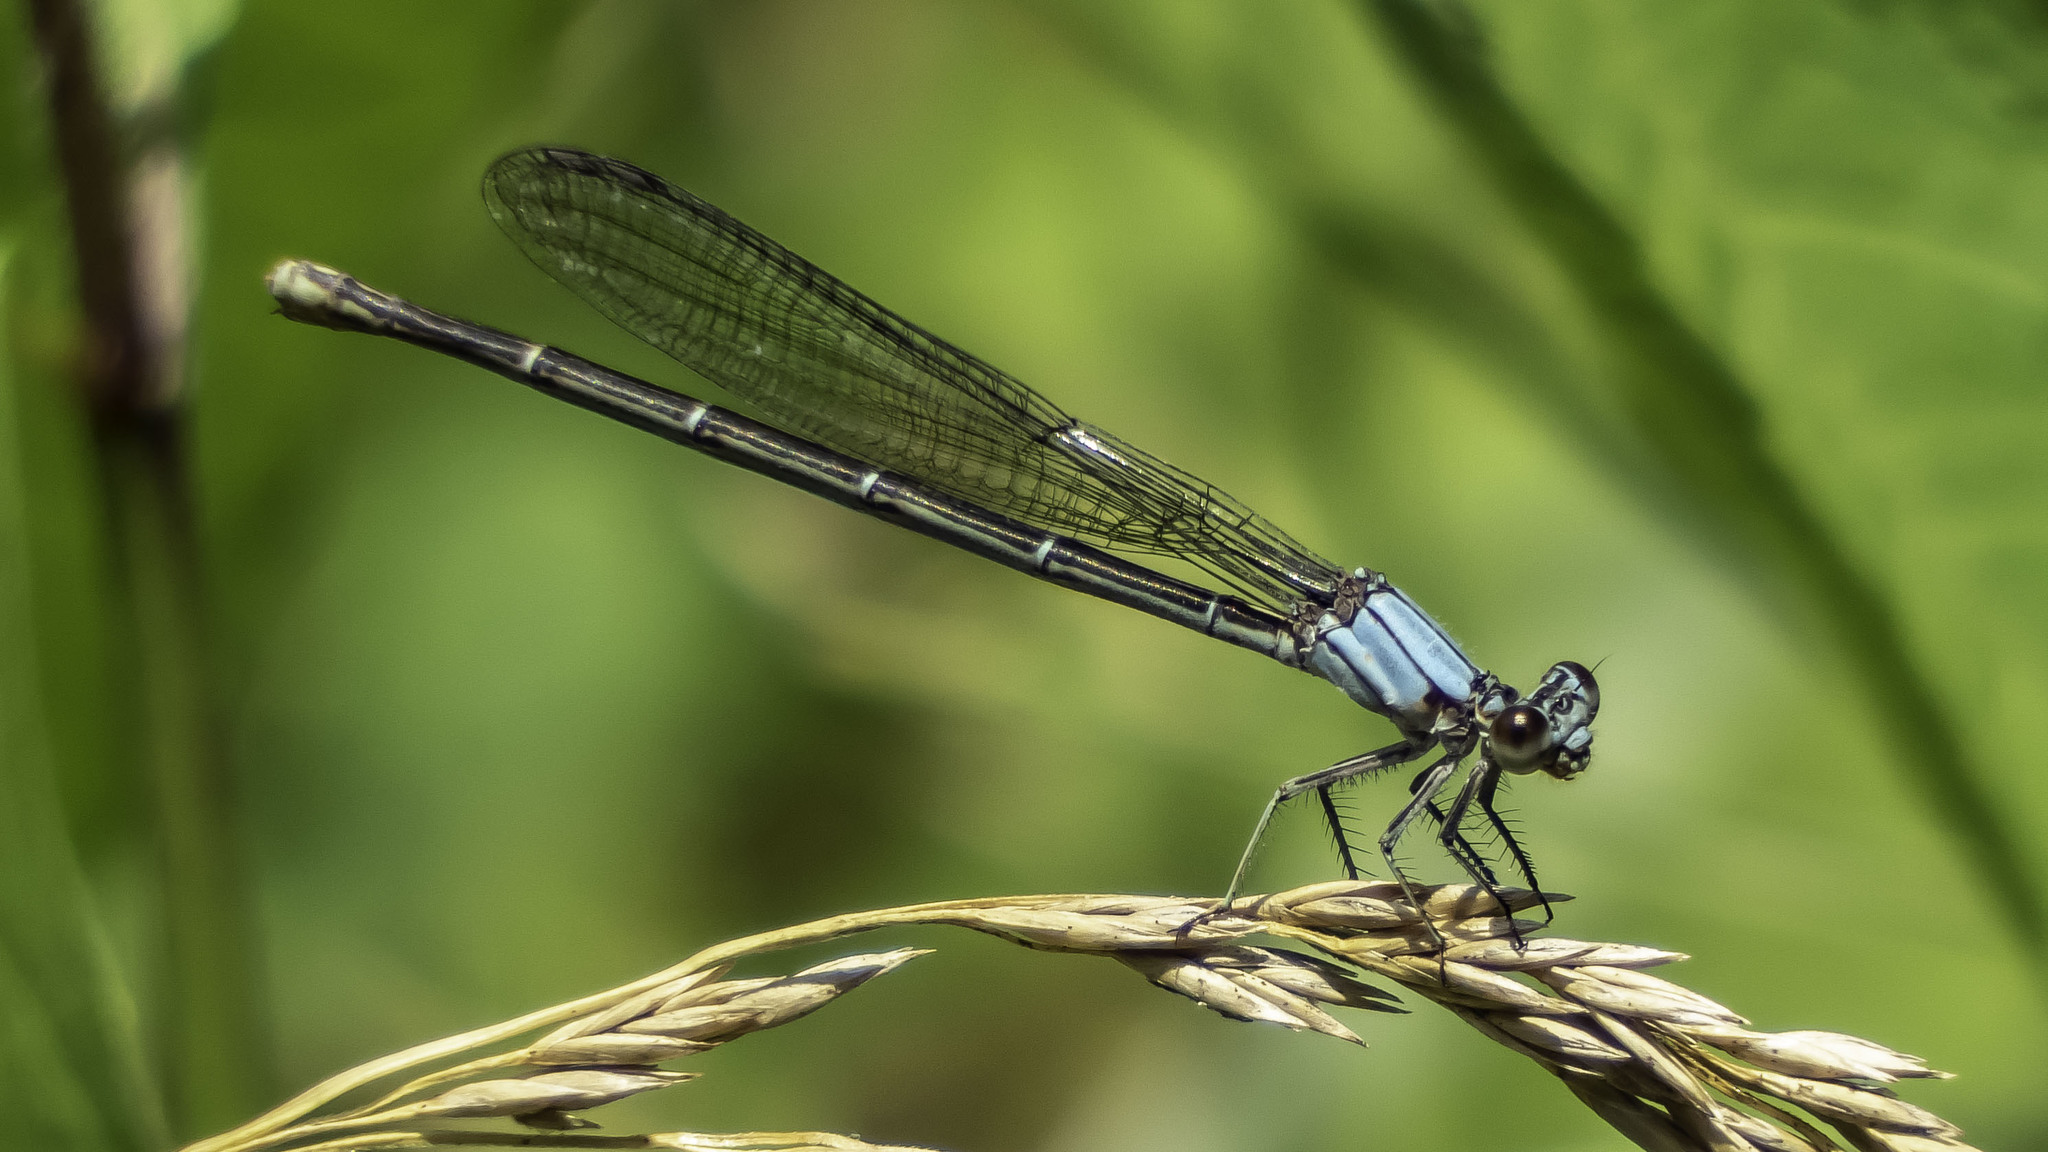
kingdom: Animalia
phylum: Arthropoda
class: Insecta
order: Odonata
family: Coenagrionidae
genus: Argia
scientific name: Argia moesta
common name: Powdered dancer
